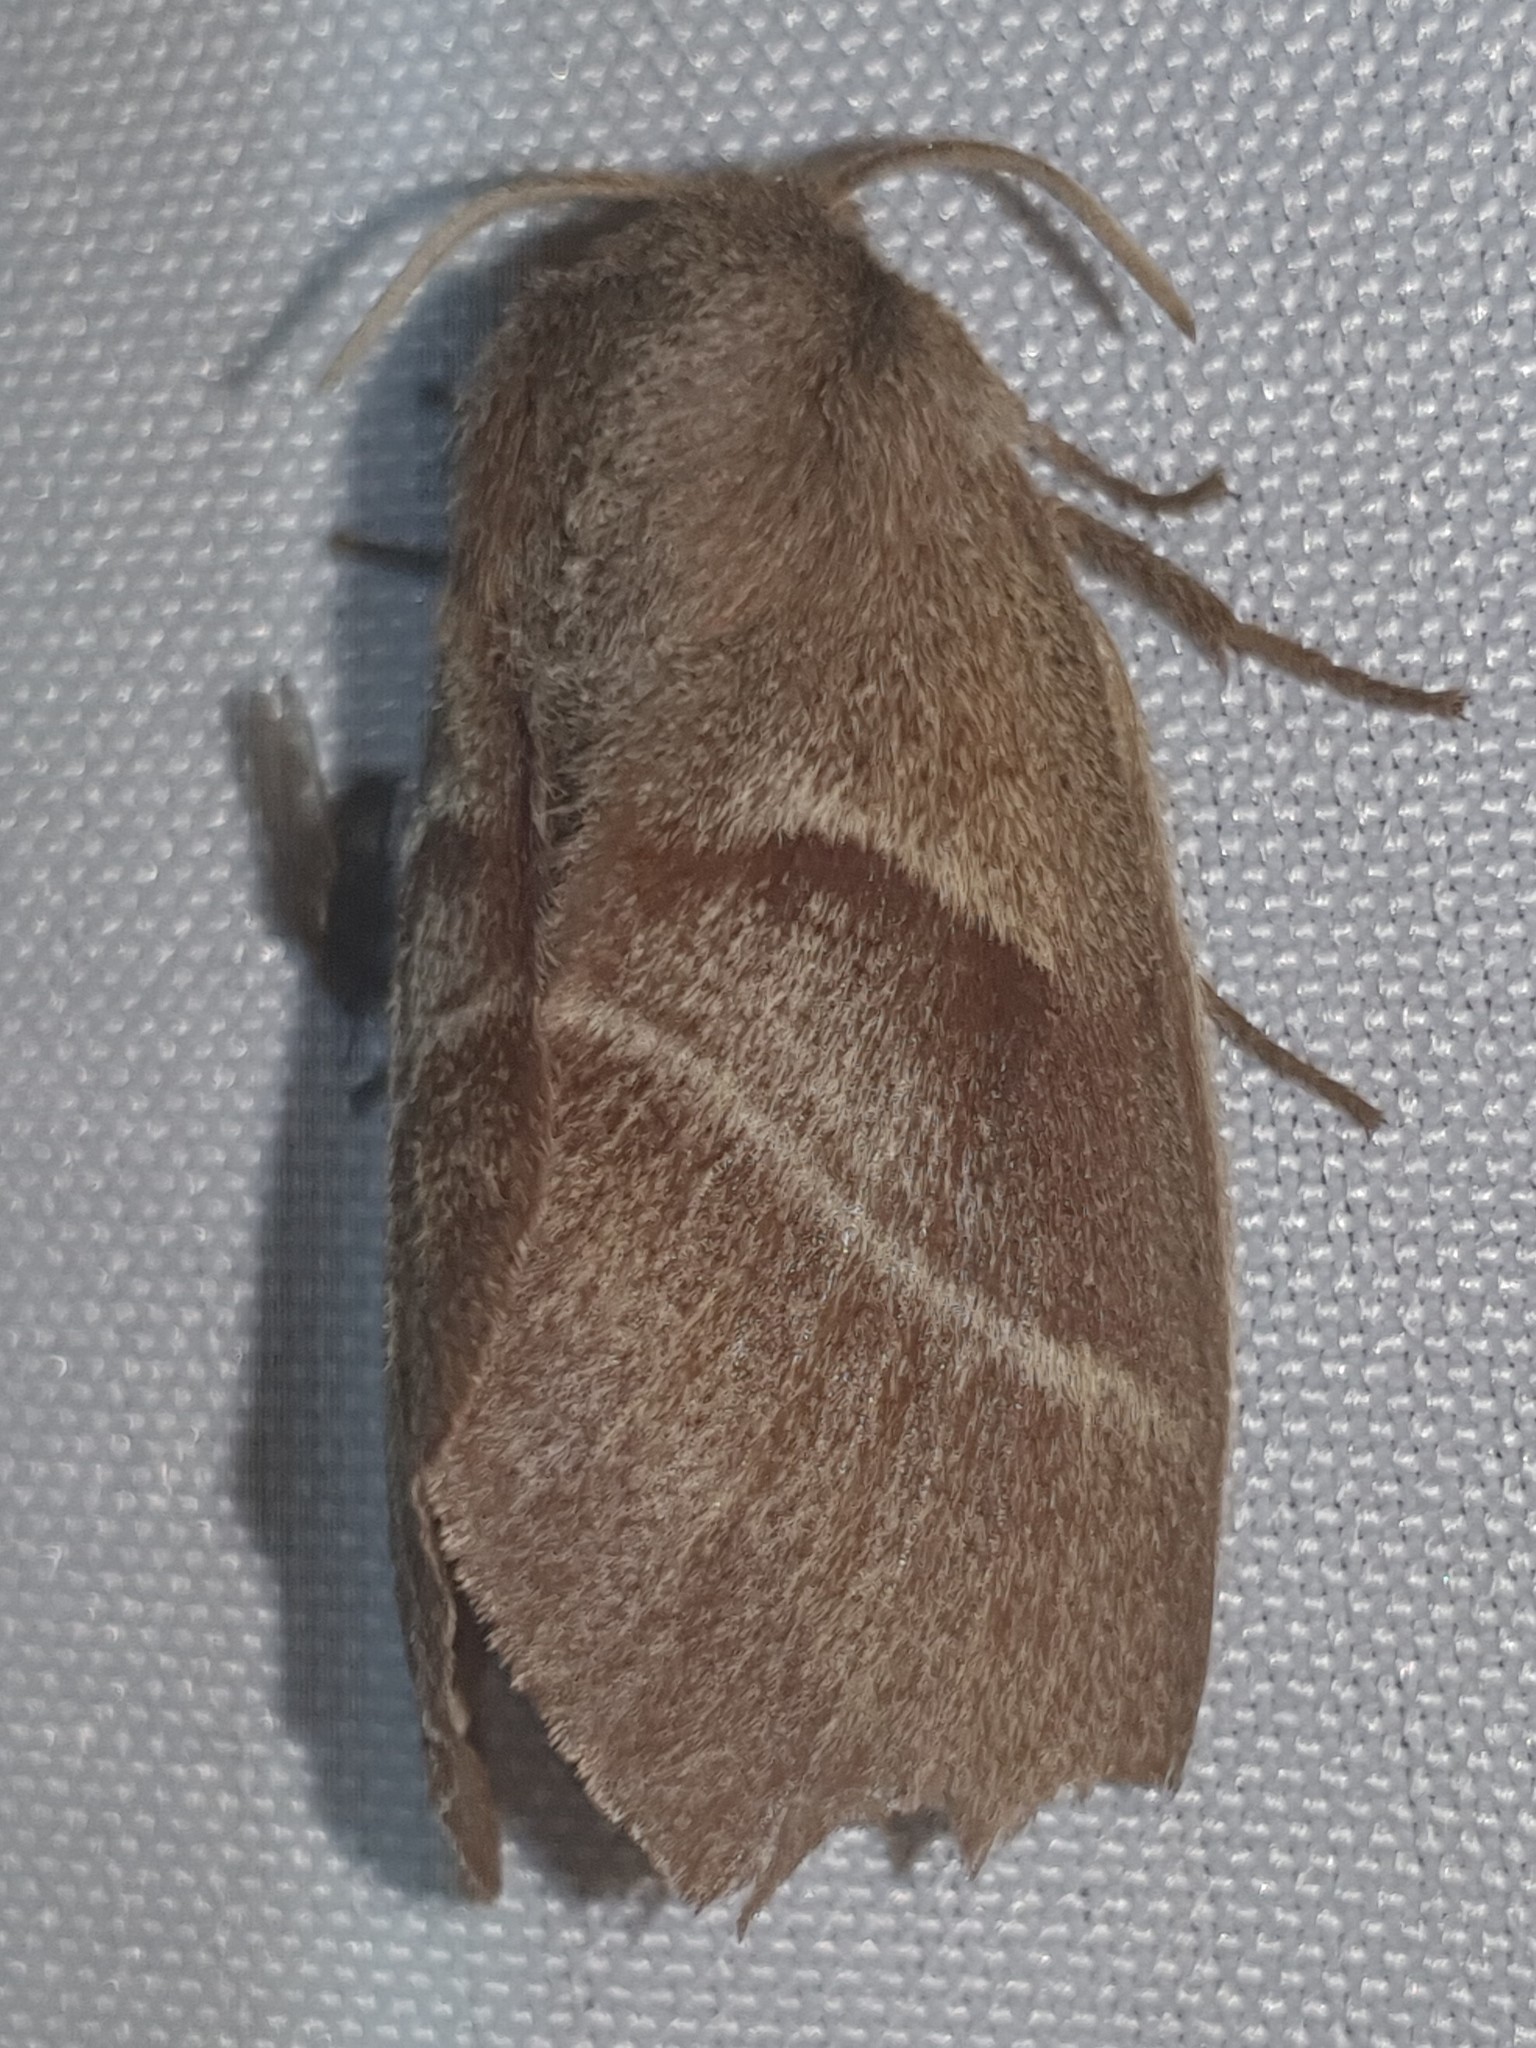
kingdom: Animalia
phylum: Arthropoda
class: Insecta
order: Lepidoptera
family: Lasiocampidae
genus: Macrothylacia
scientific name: Macrothylacia rubi
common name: Fox moth
